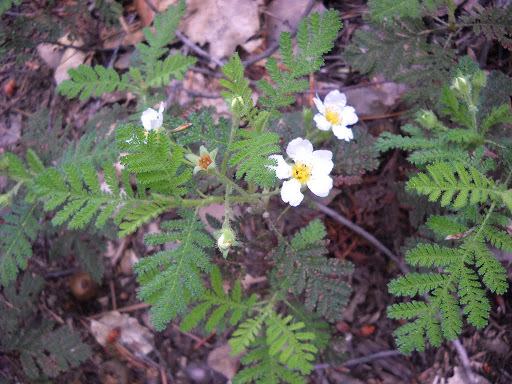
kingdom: Plantae
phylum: Tracheophyta
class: Magnoliopsida
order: Rosales
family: Rosaceae
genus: Chamaebatia
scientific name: Chamaebatia foliolosa
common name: Mountain misery
